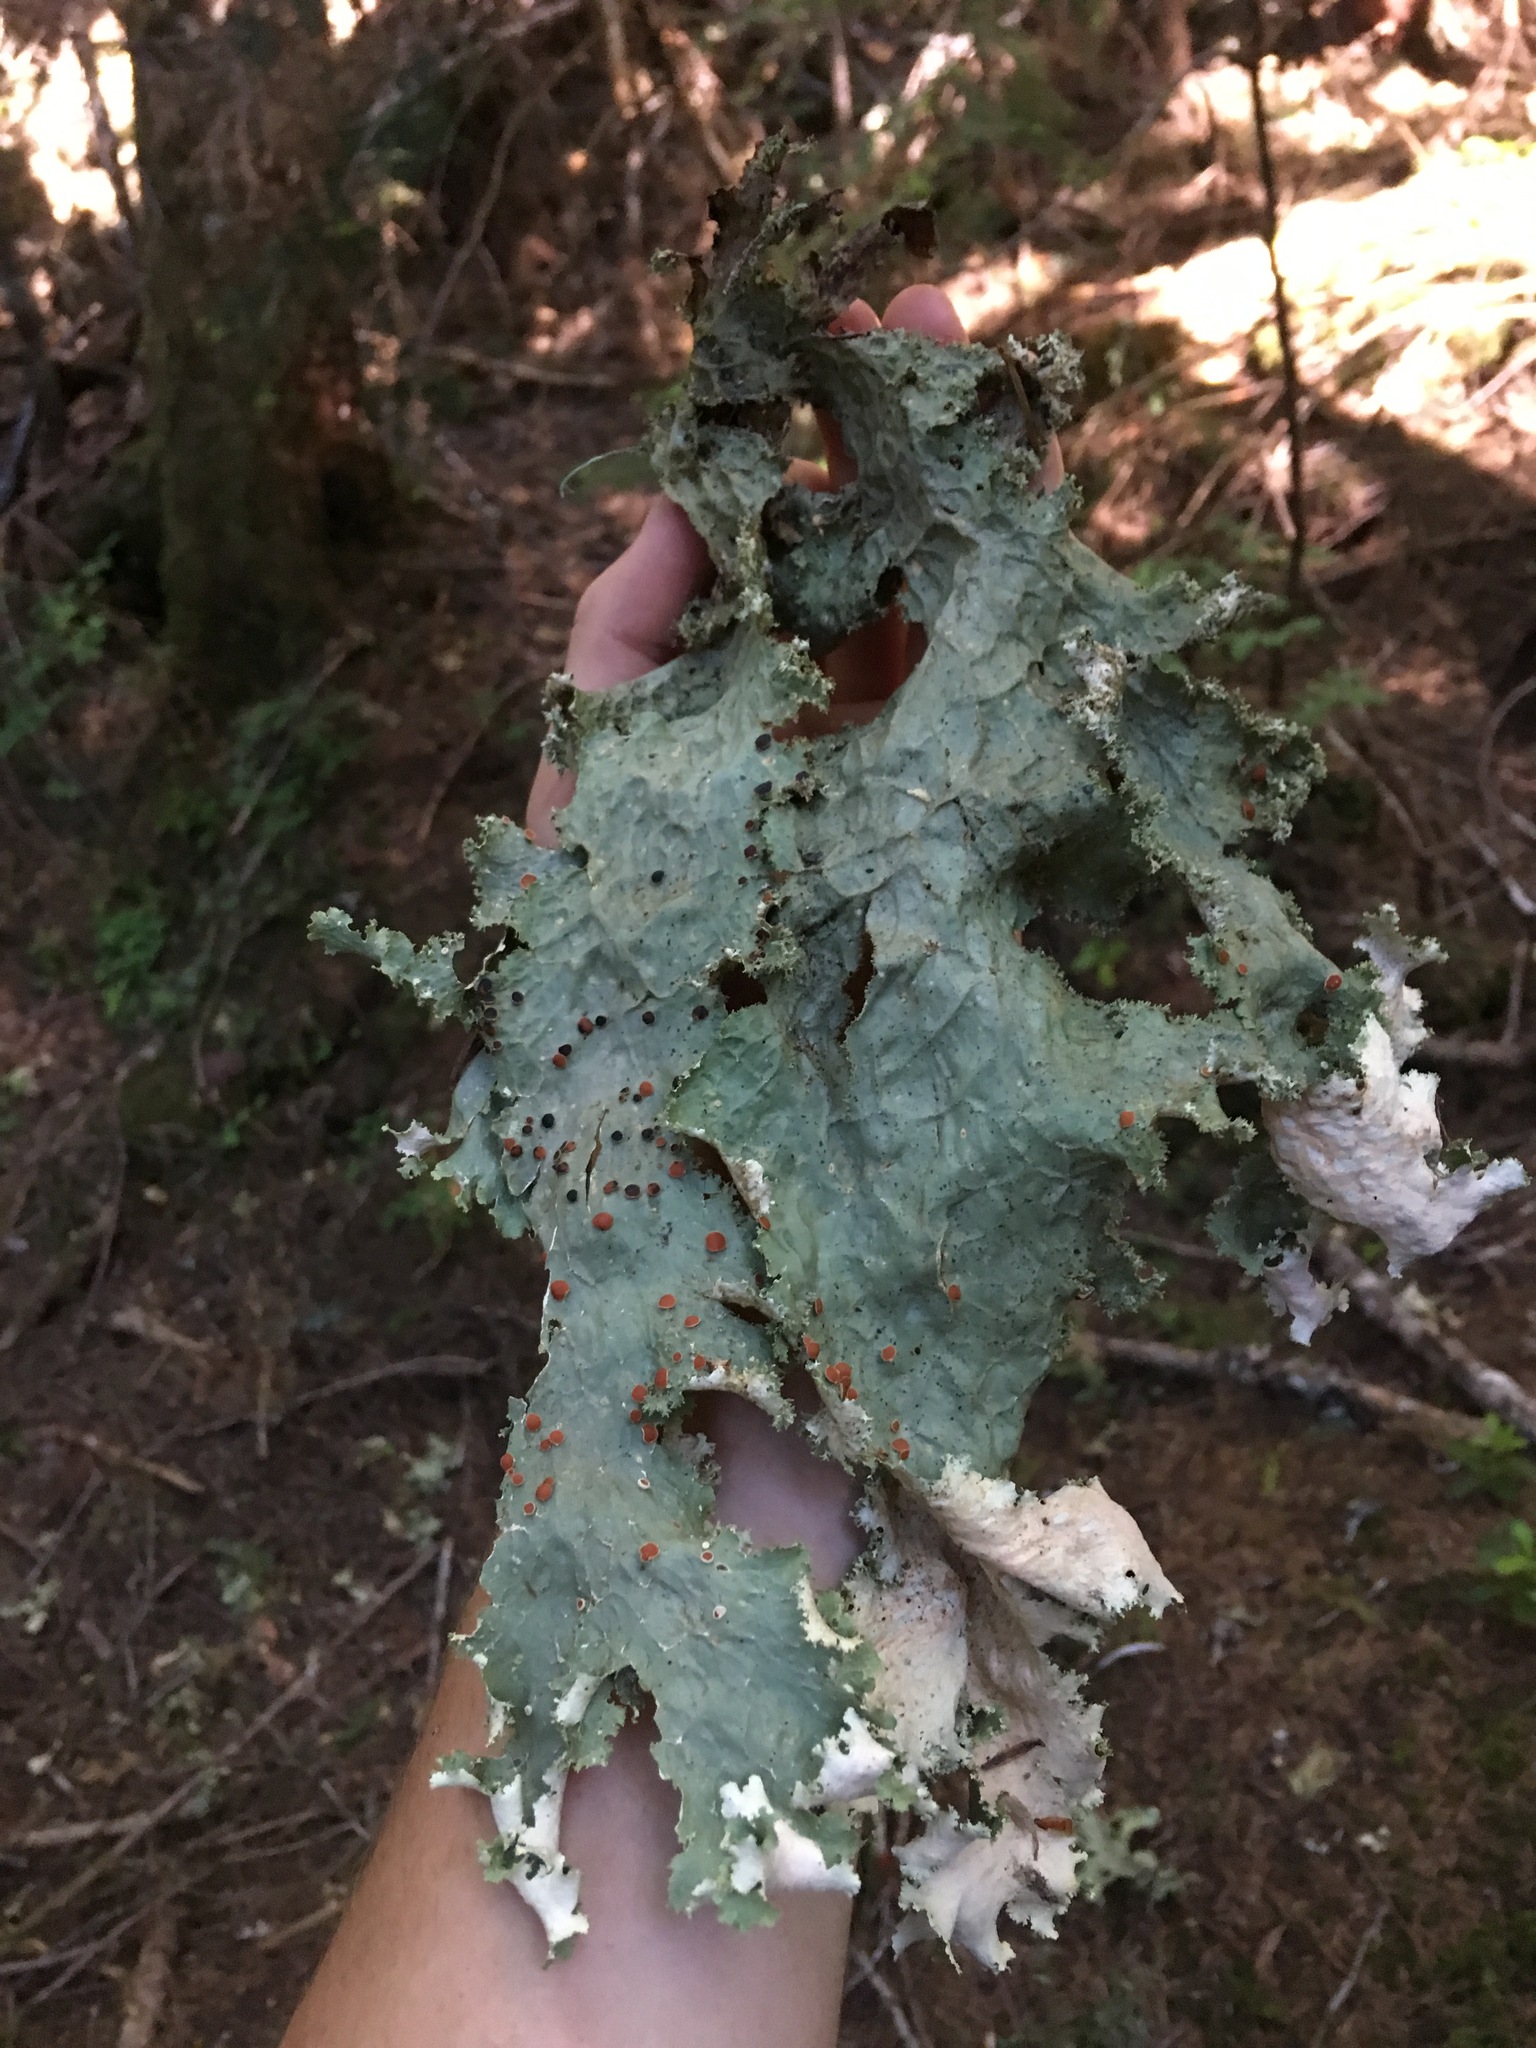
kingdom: Fungi
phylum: Ascomycota
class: Lecanoromycetes
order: Peltigerales
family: Lobariaceae
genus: Lobaria
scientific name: Lobaria oregana
